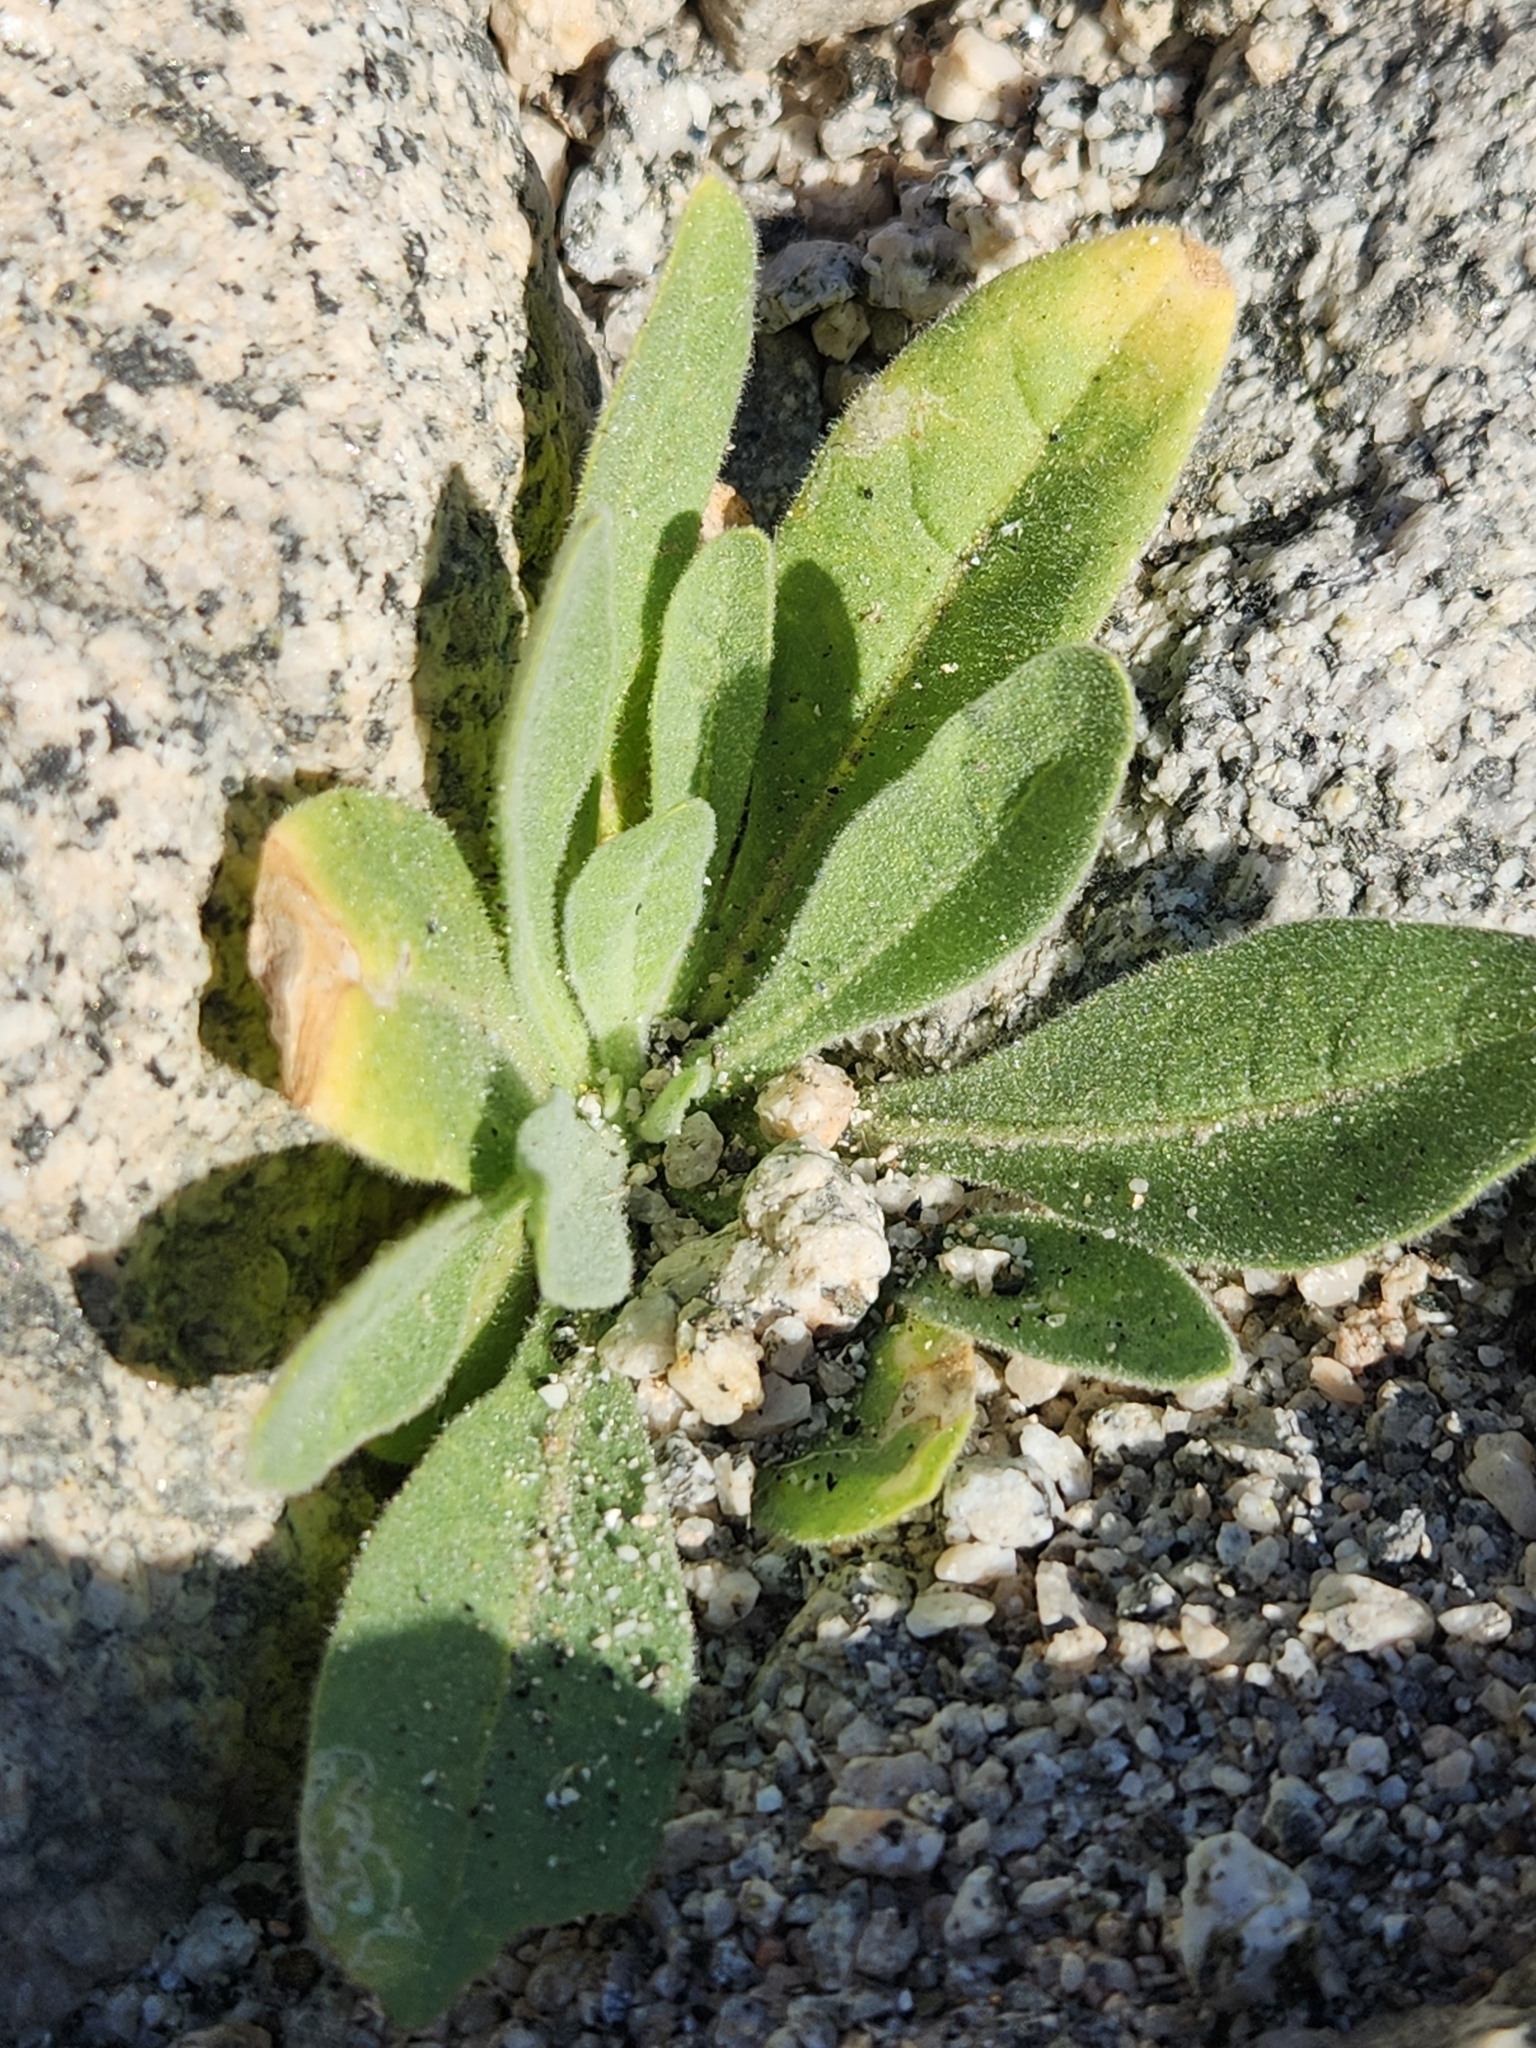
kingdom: Plantae
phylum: Tracheophyta
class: Magnoliopsida
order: Solanales
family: Solanaceae
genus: Nicotiana
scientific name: Nicotiana obtusifolia
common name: Desert tobacco
